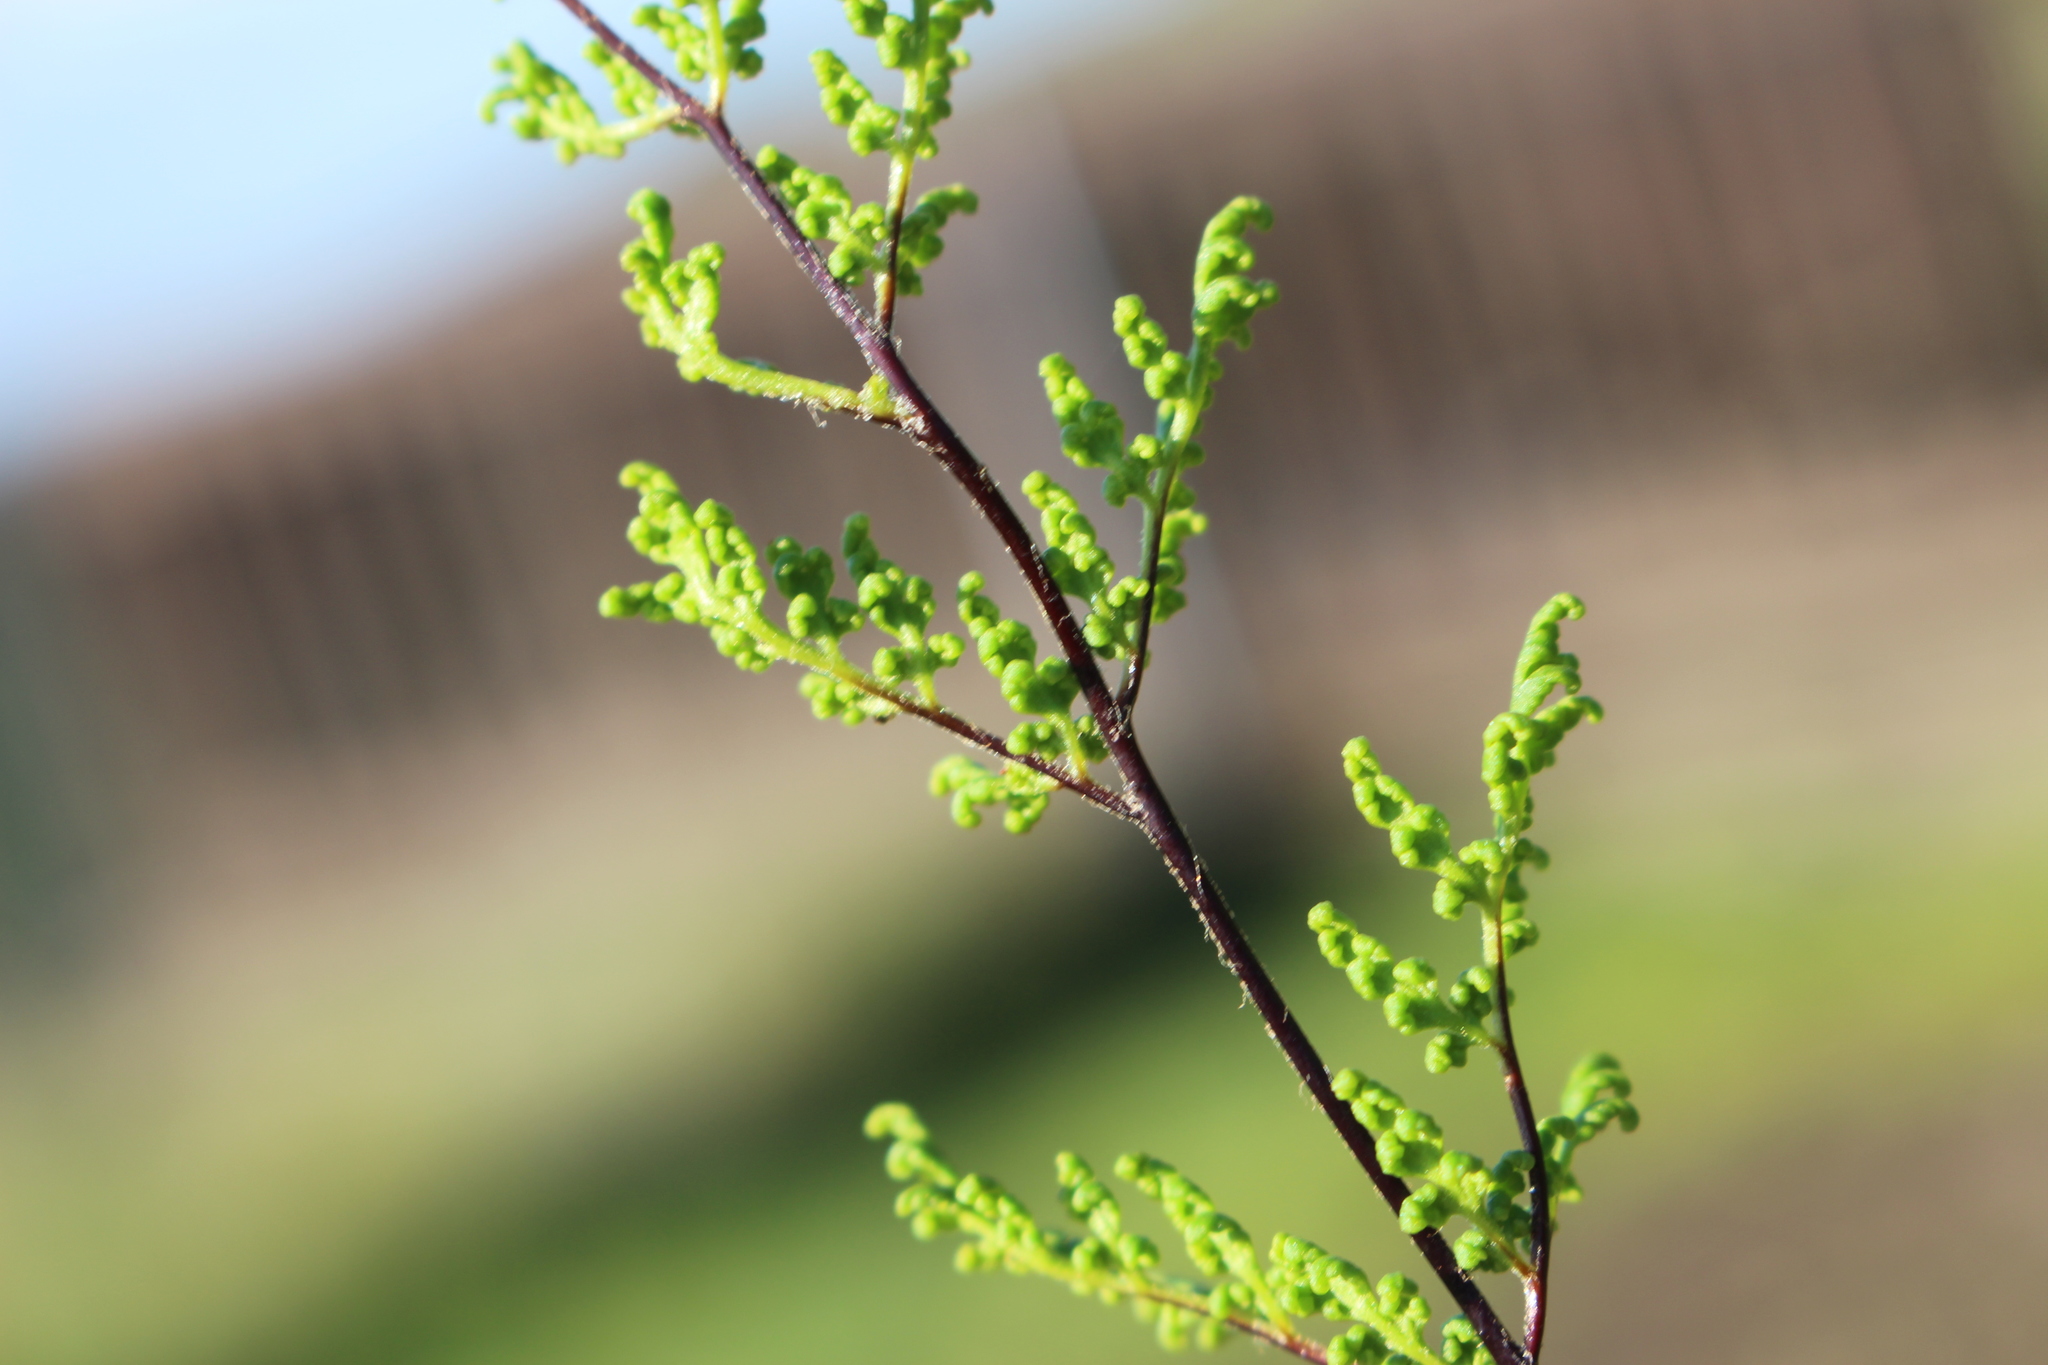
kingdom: Plantae
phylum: Tracheophyta
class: Polypodiopsida
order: Polypodiales
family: Pteridaceae
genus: Cheilanthes
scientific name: Cheilanthes sieberi
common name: Mulga fern
